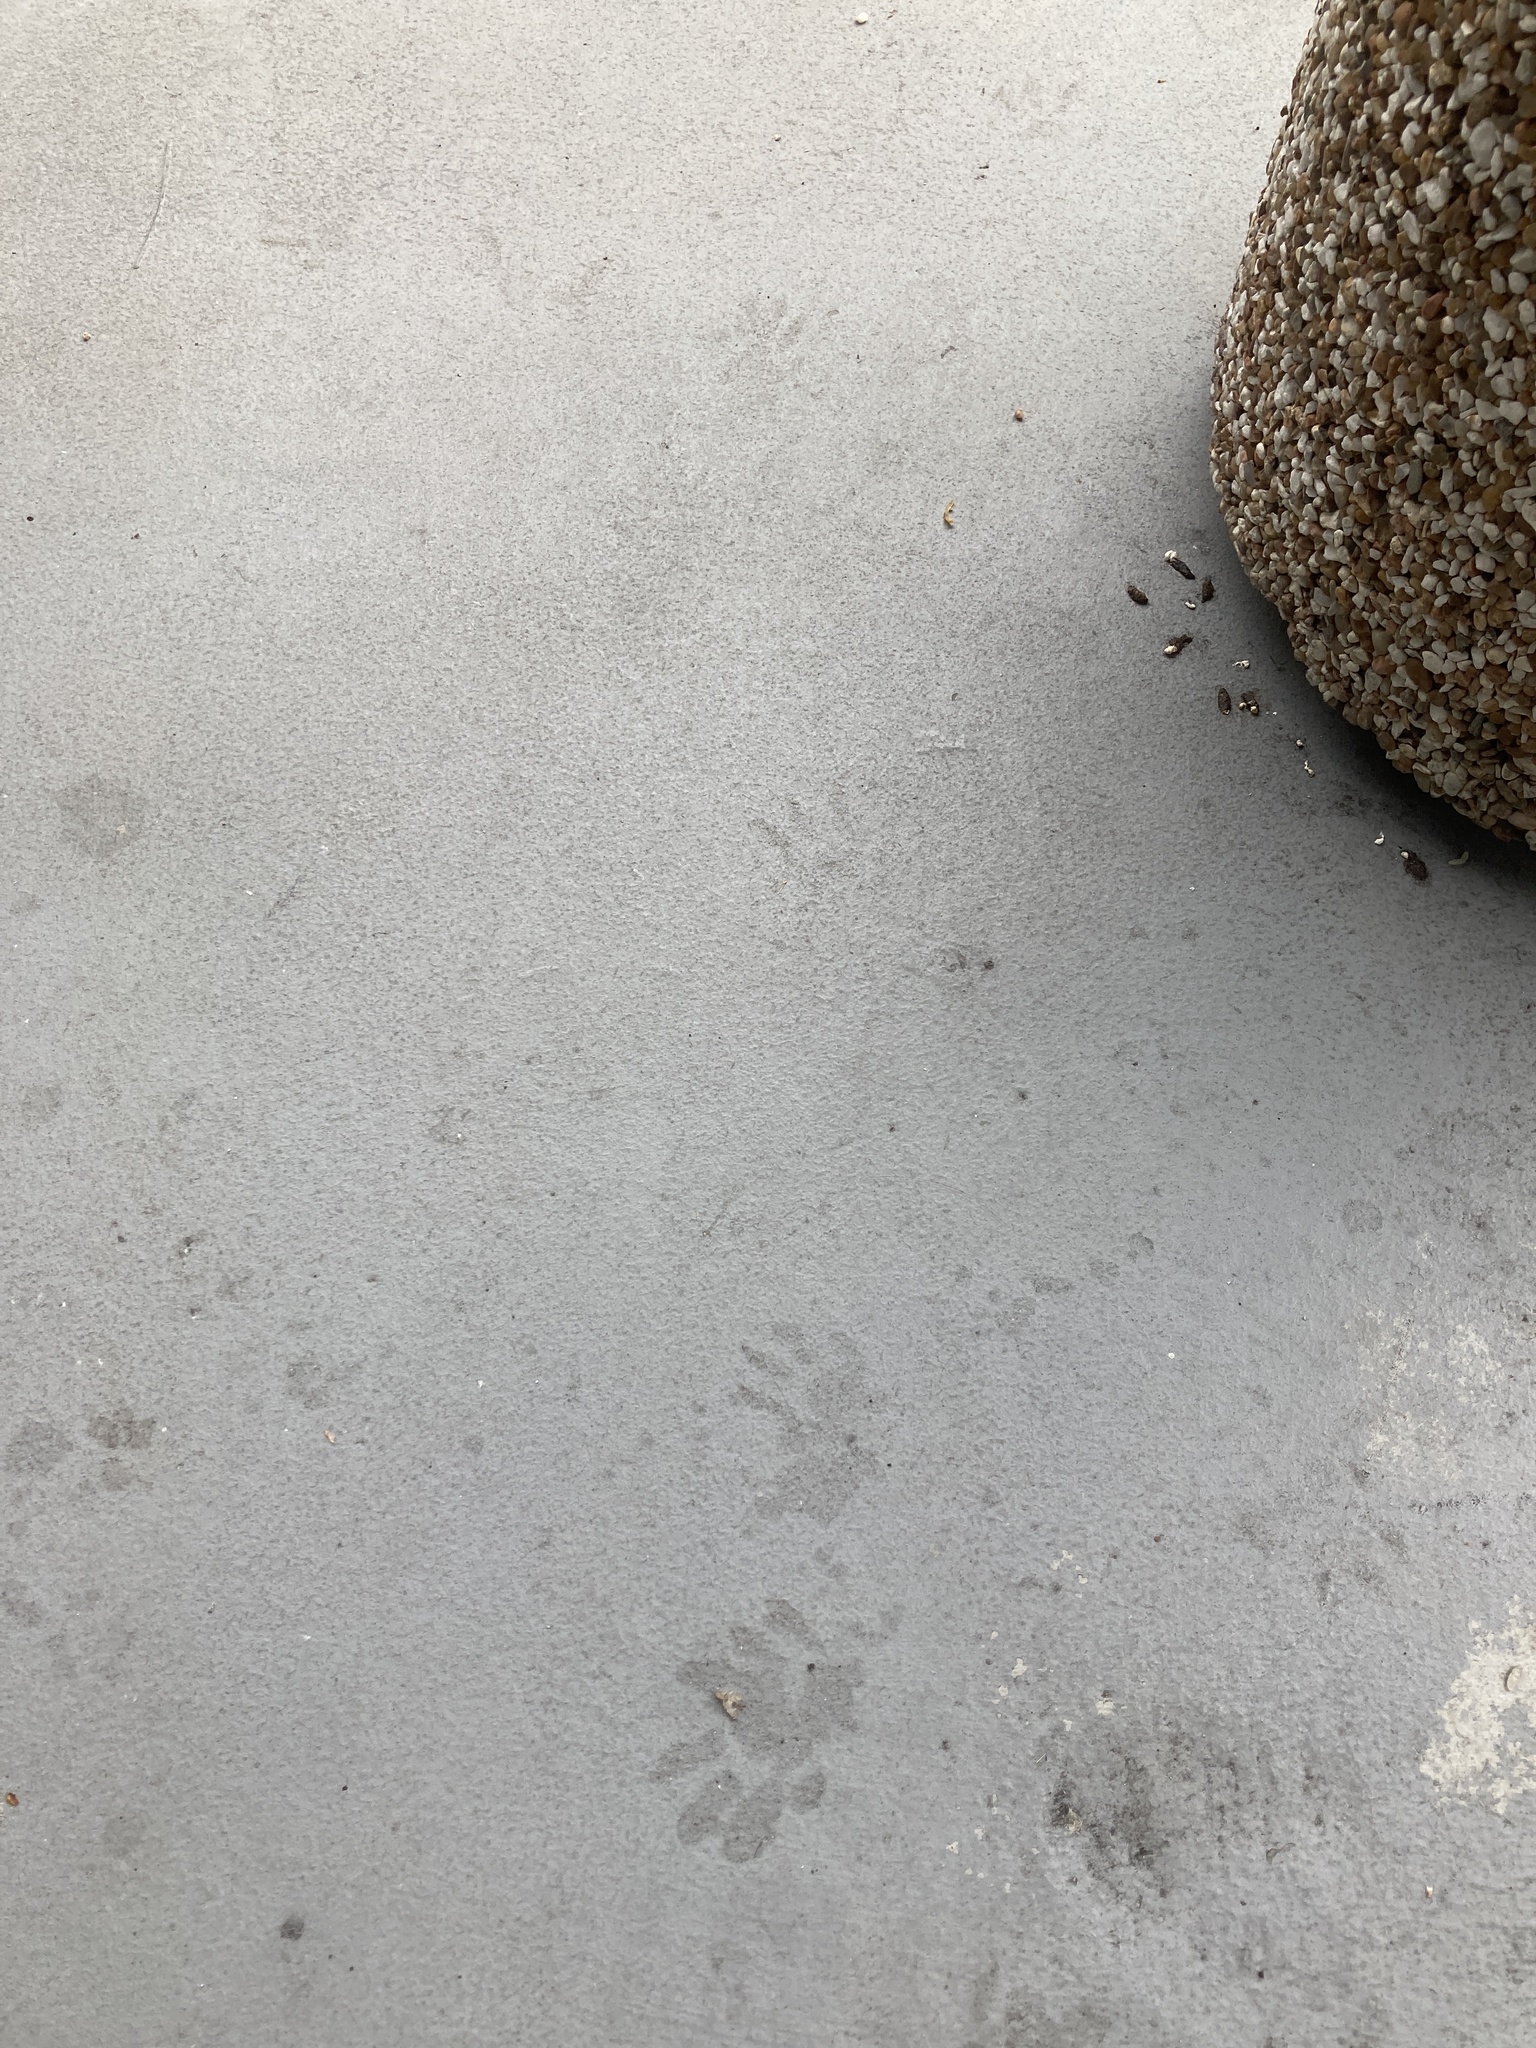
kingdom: Animalia
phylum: Chordata
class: Mammalia
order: Carnivora
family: Procyonidae
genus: Procyon
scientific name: Procyon lotor
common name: Raccoon
